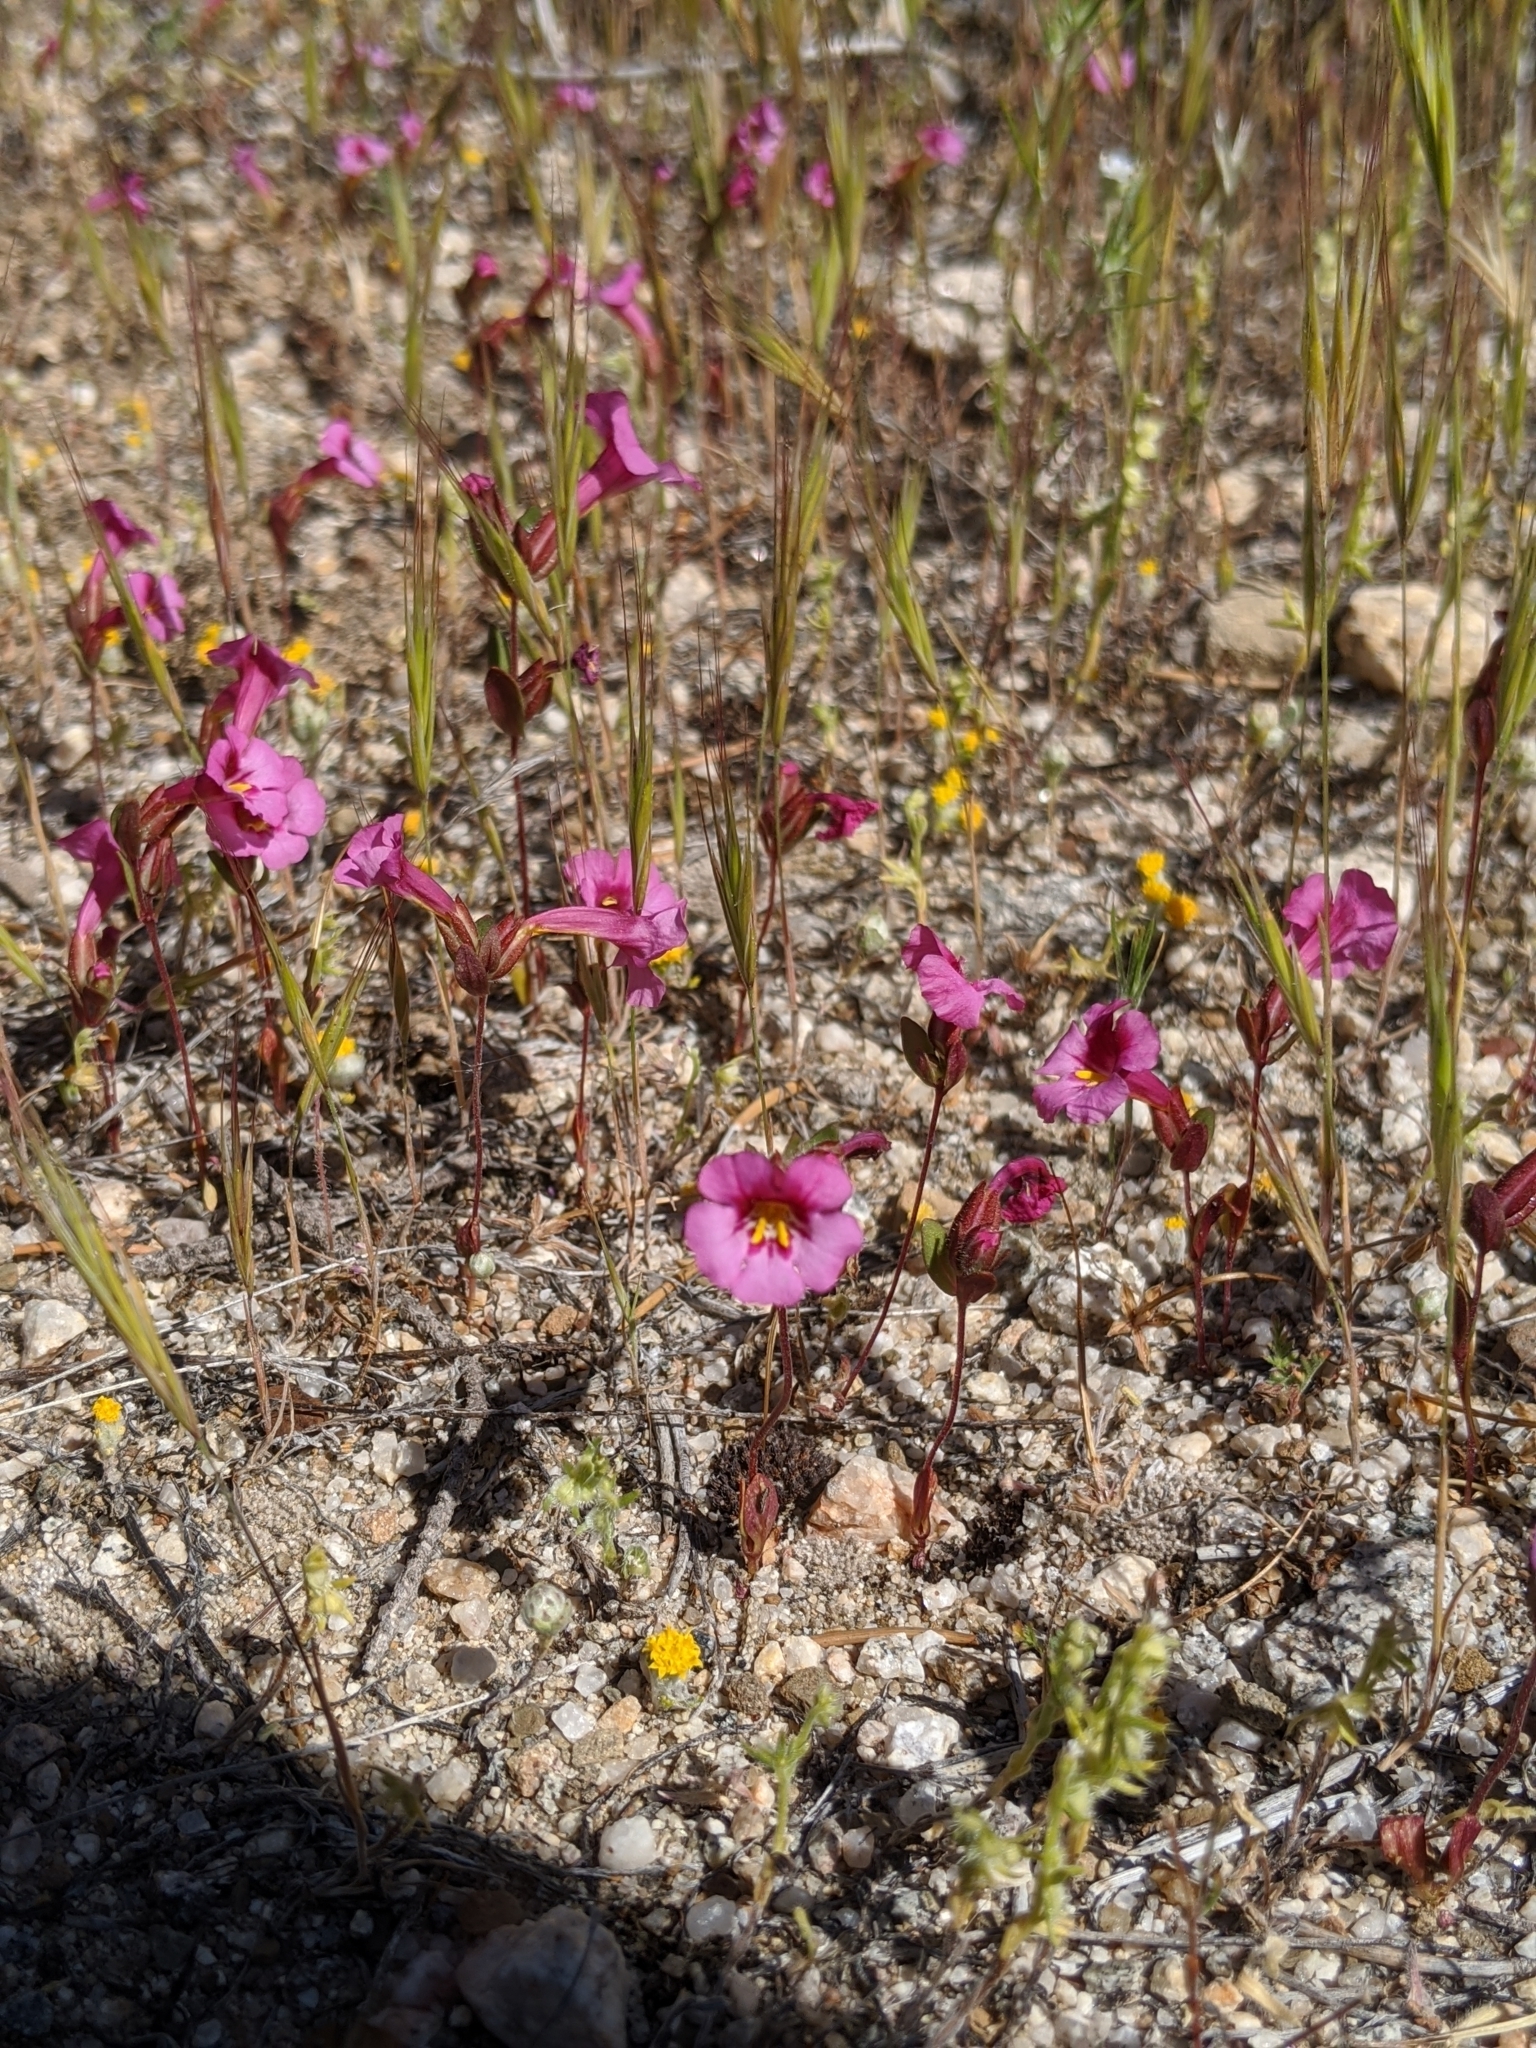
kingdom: Plantae
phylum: Tracheophyta
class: Magnoliopsida
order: Lamiales
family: Phrymaceae
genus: Diplacus
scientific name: Diplacus fremontii
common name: Fremont's monkey-flower
